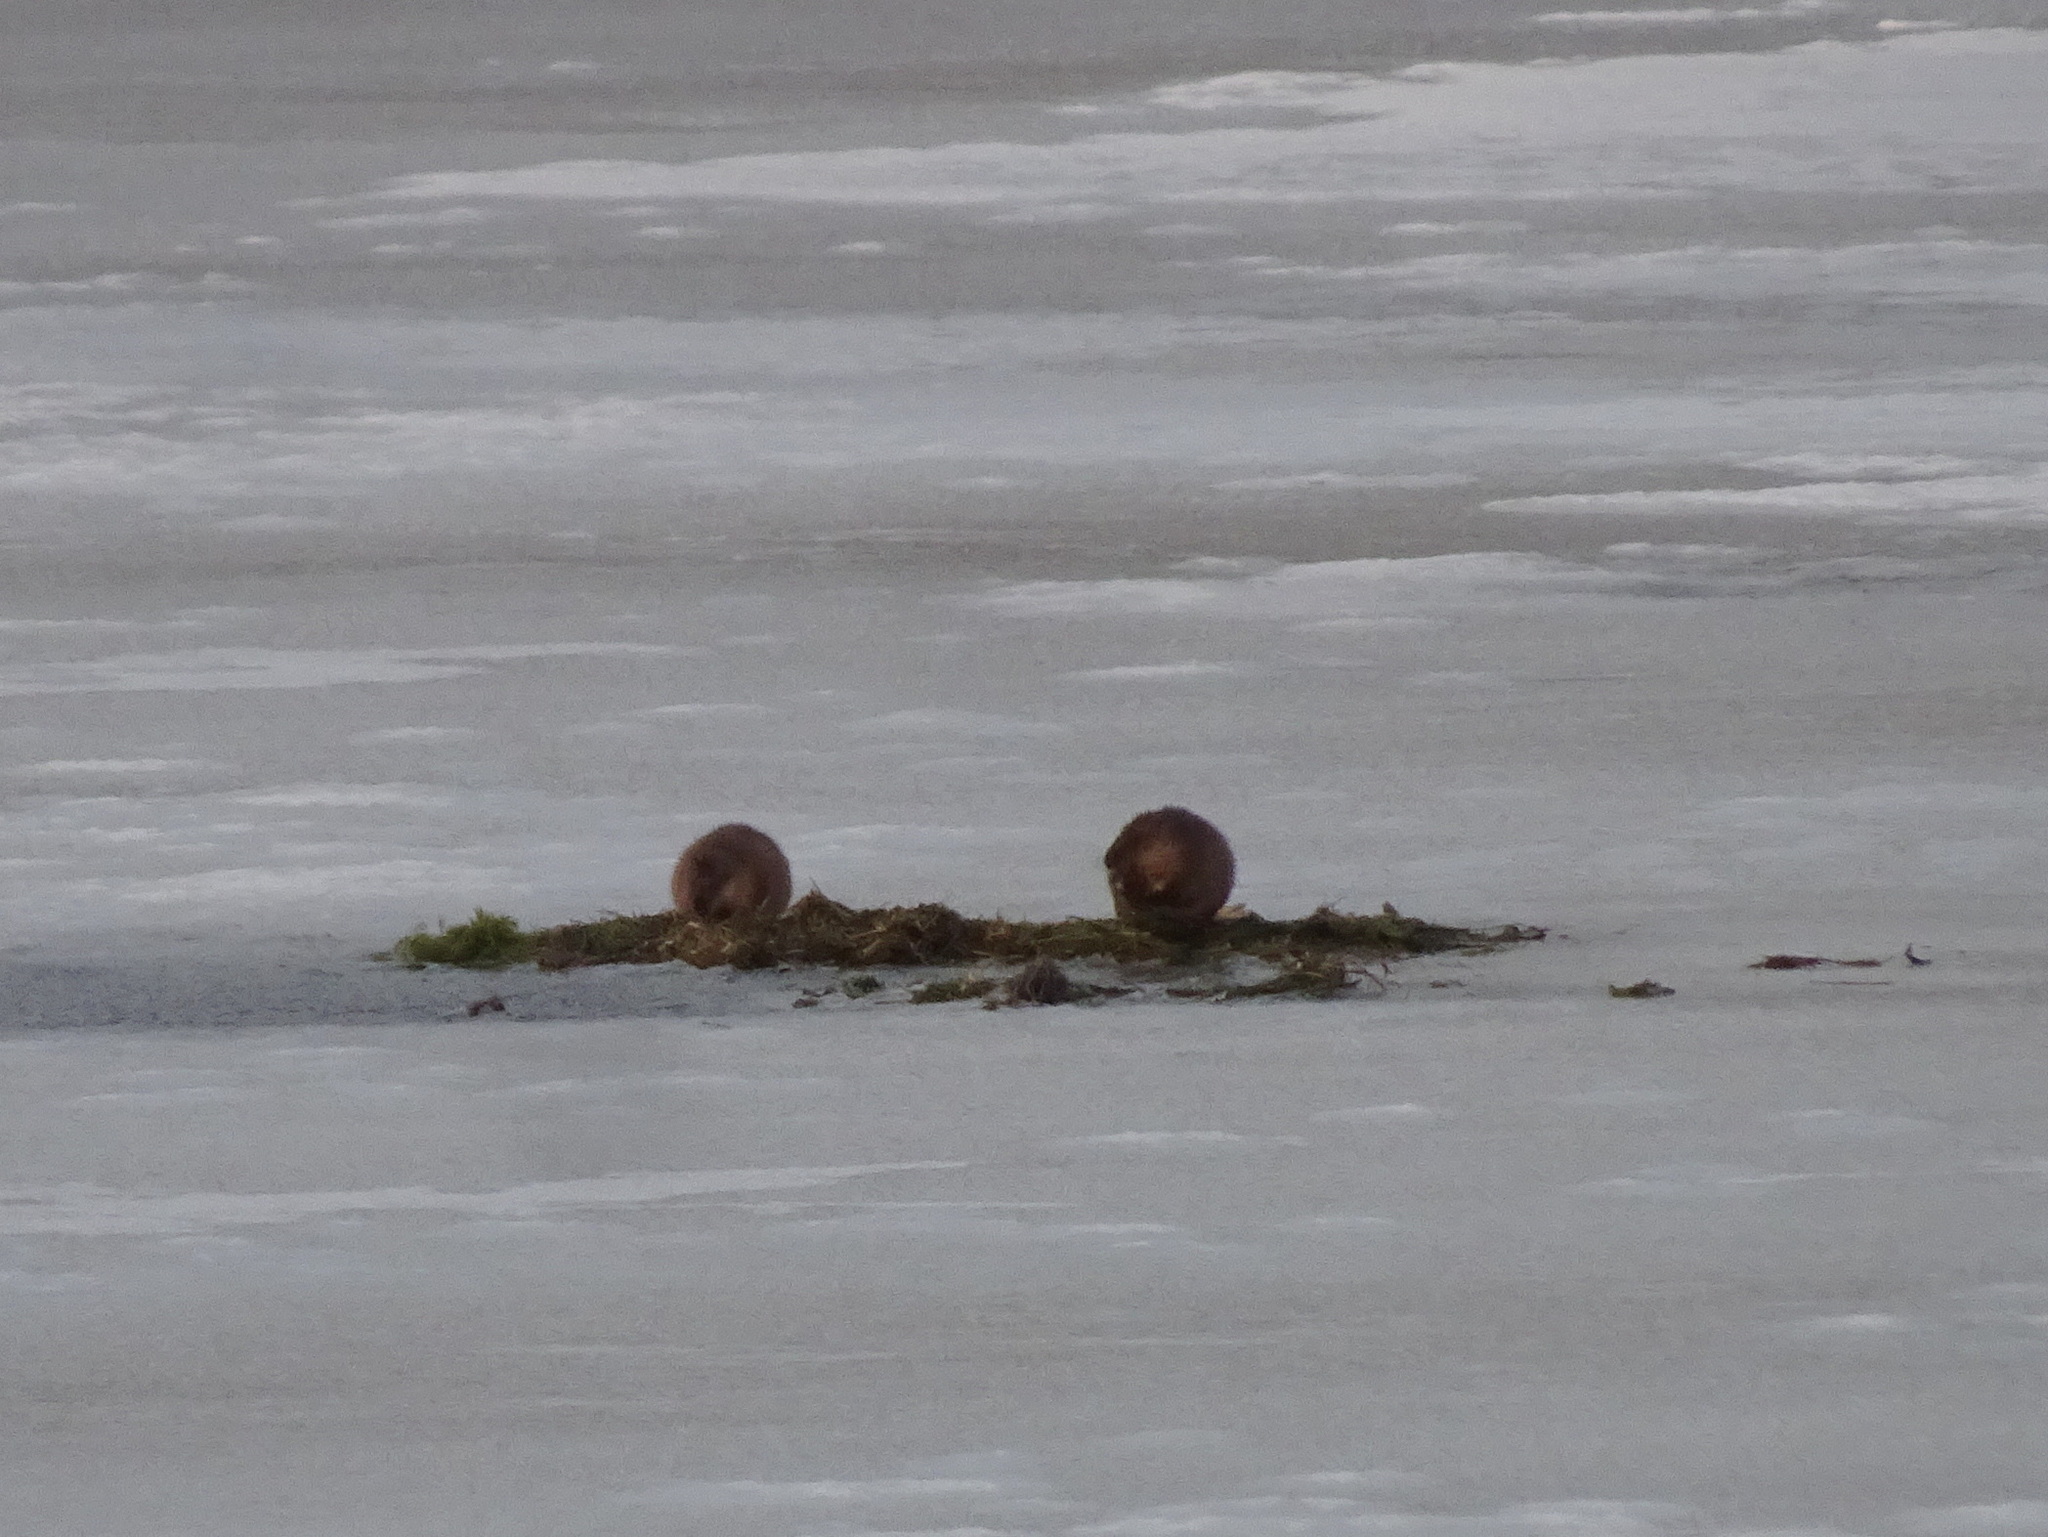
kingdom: Animalia
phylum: Chordata
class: Mammalia
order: Rodentia
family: Cricetidae
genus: Ondatra
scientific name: Ondatra zibethicus
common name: Muskrat
